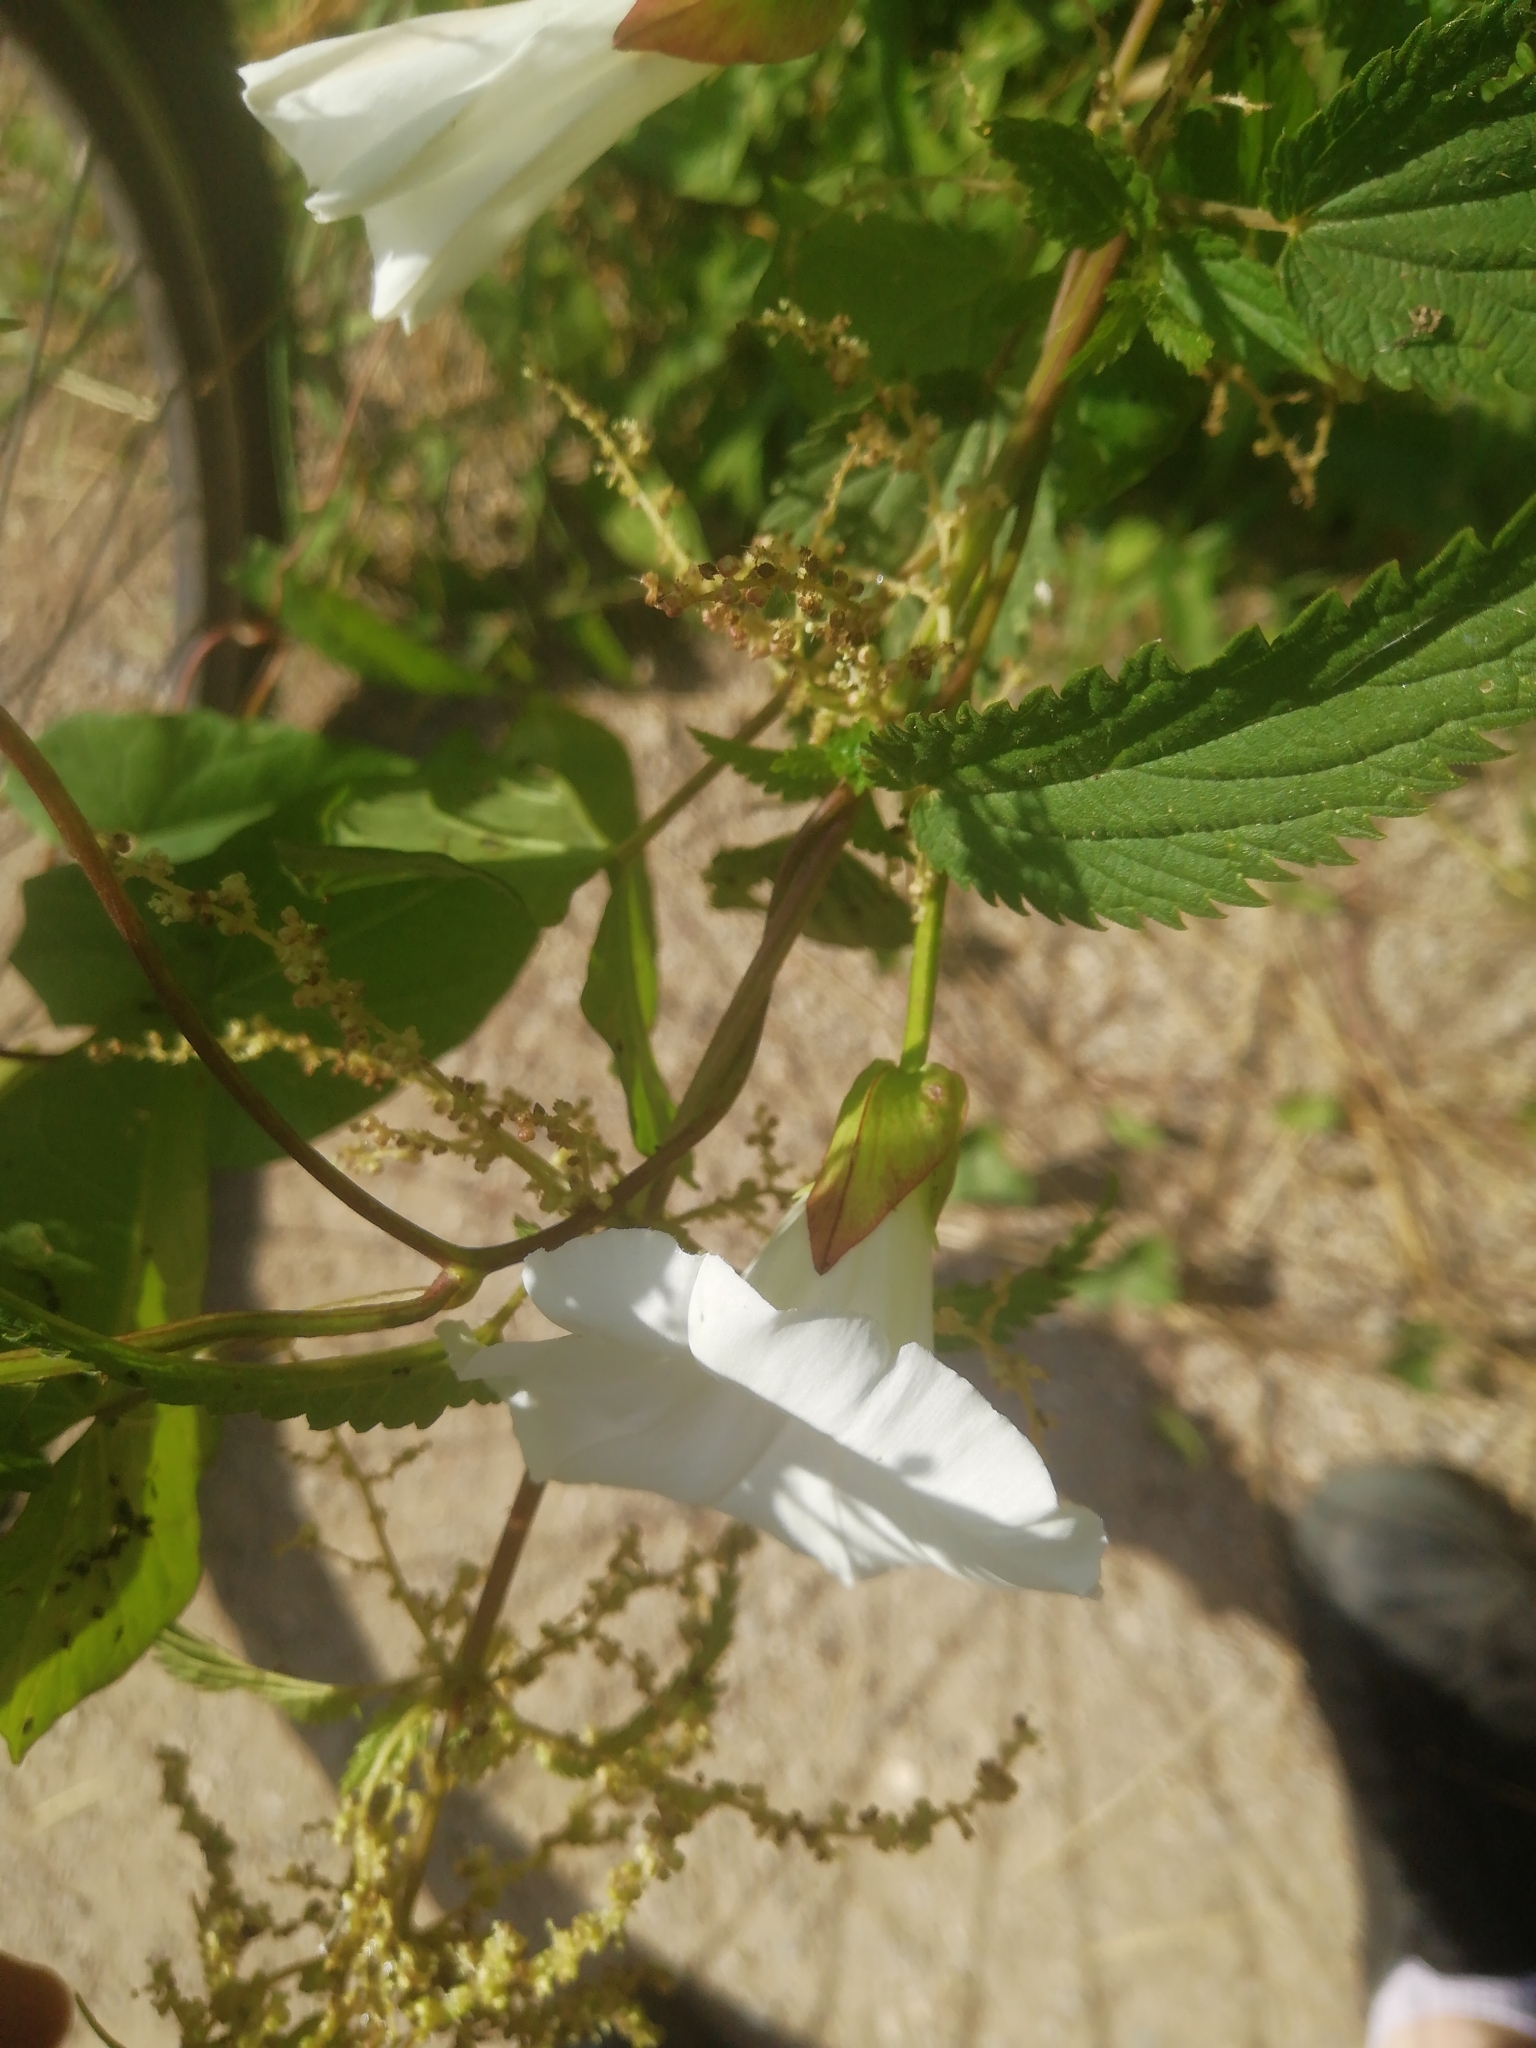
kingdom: Plantae
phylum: Tracheophyta
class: Magnoliopsida
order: Solanales
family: Convolvulaceae
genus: Calystegia
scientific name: Calystegia sepium
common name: Hedge bindweed
